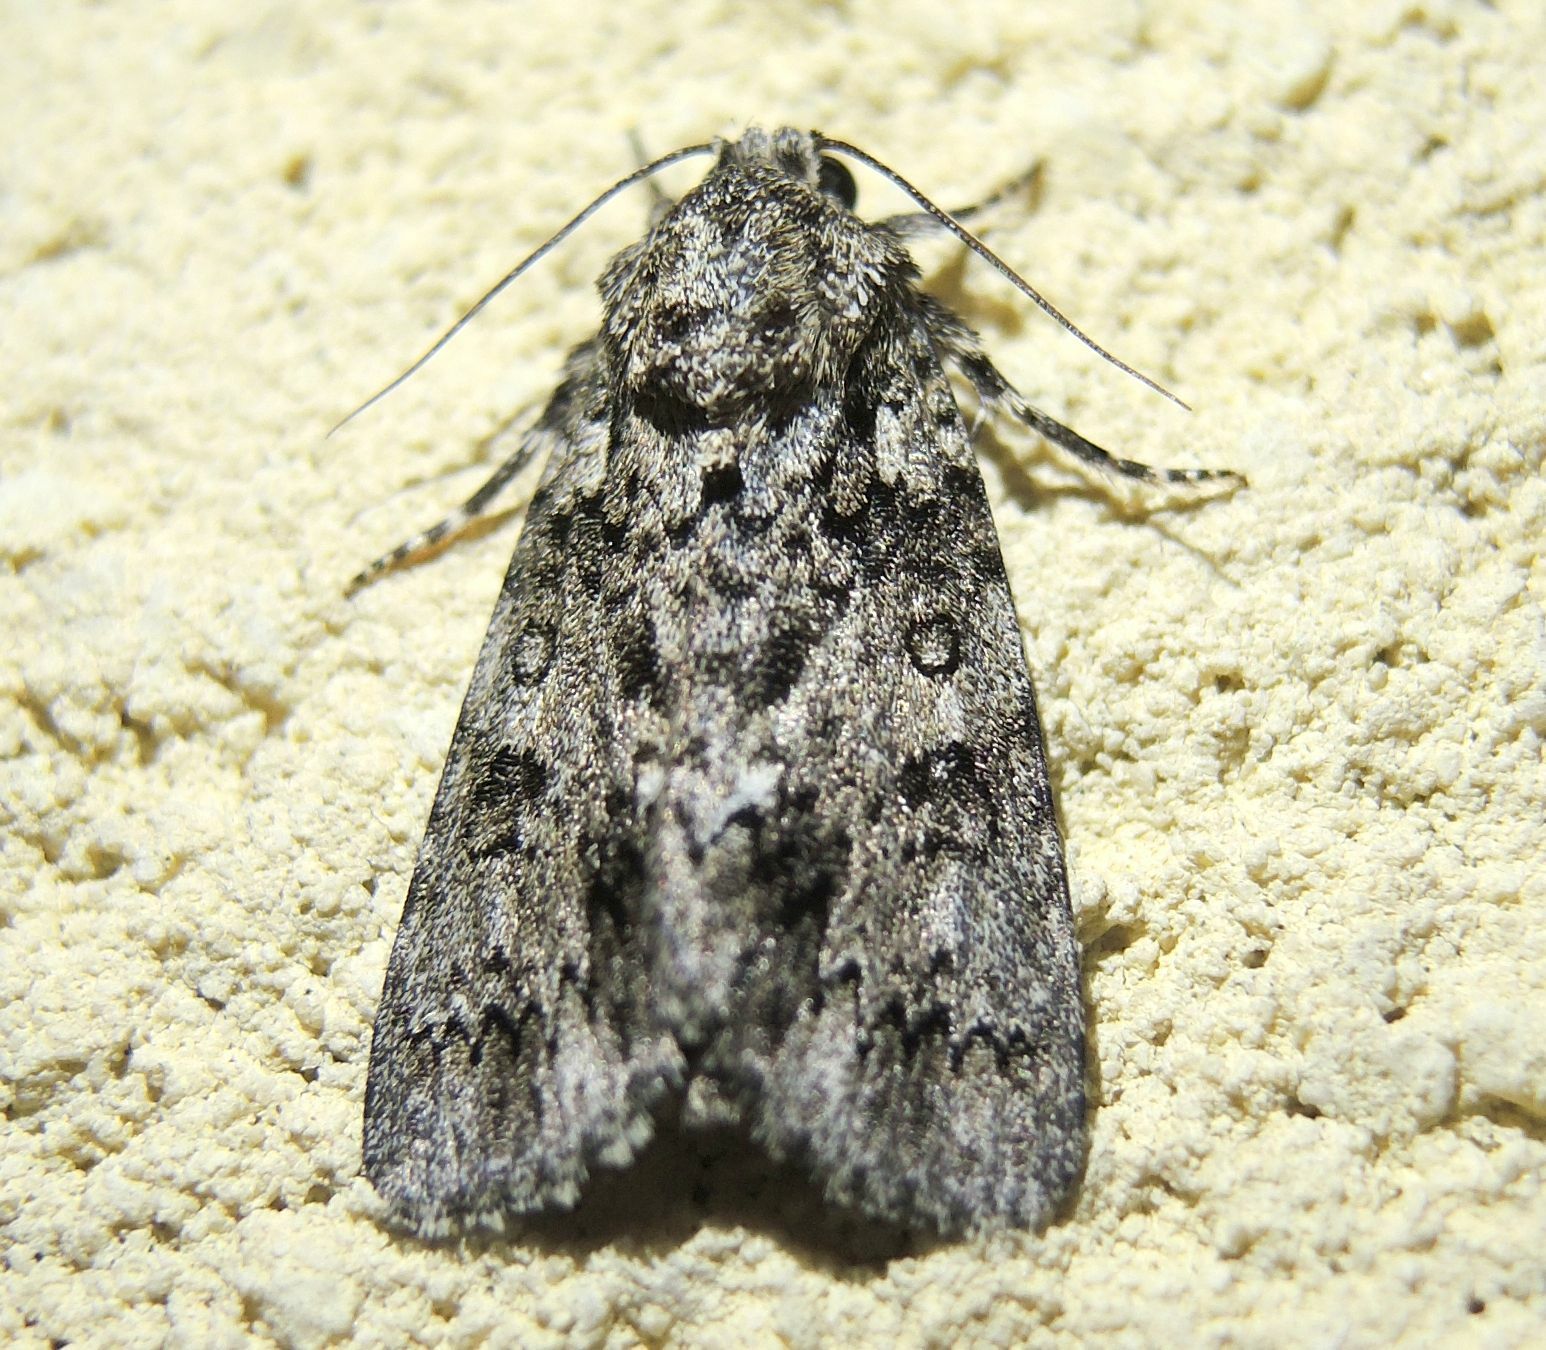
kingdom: Animalia
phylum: Arthropoda
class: Insecta
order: Lepidoptera
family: Noctuidae
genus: Acronicta
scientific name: Acronicta rumicis
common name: Knot grass
